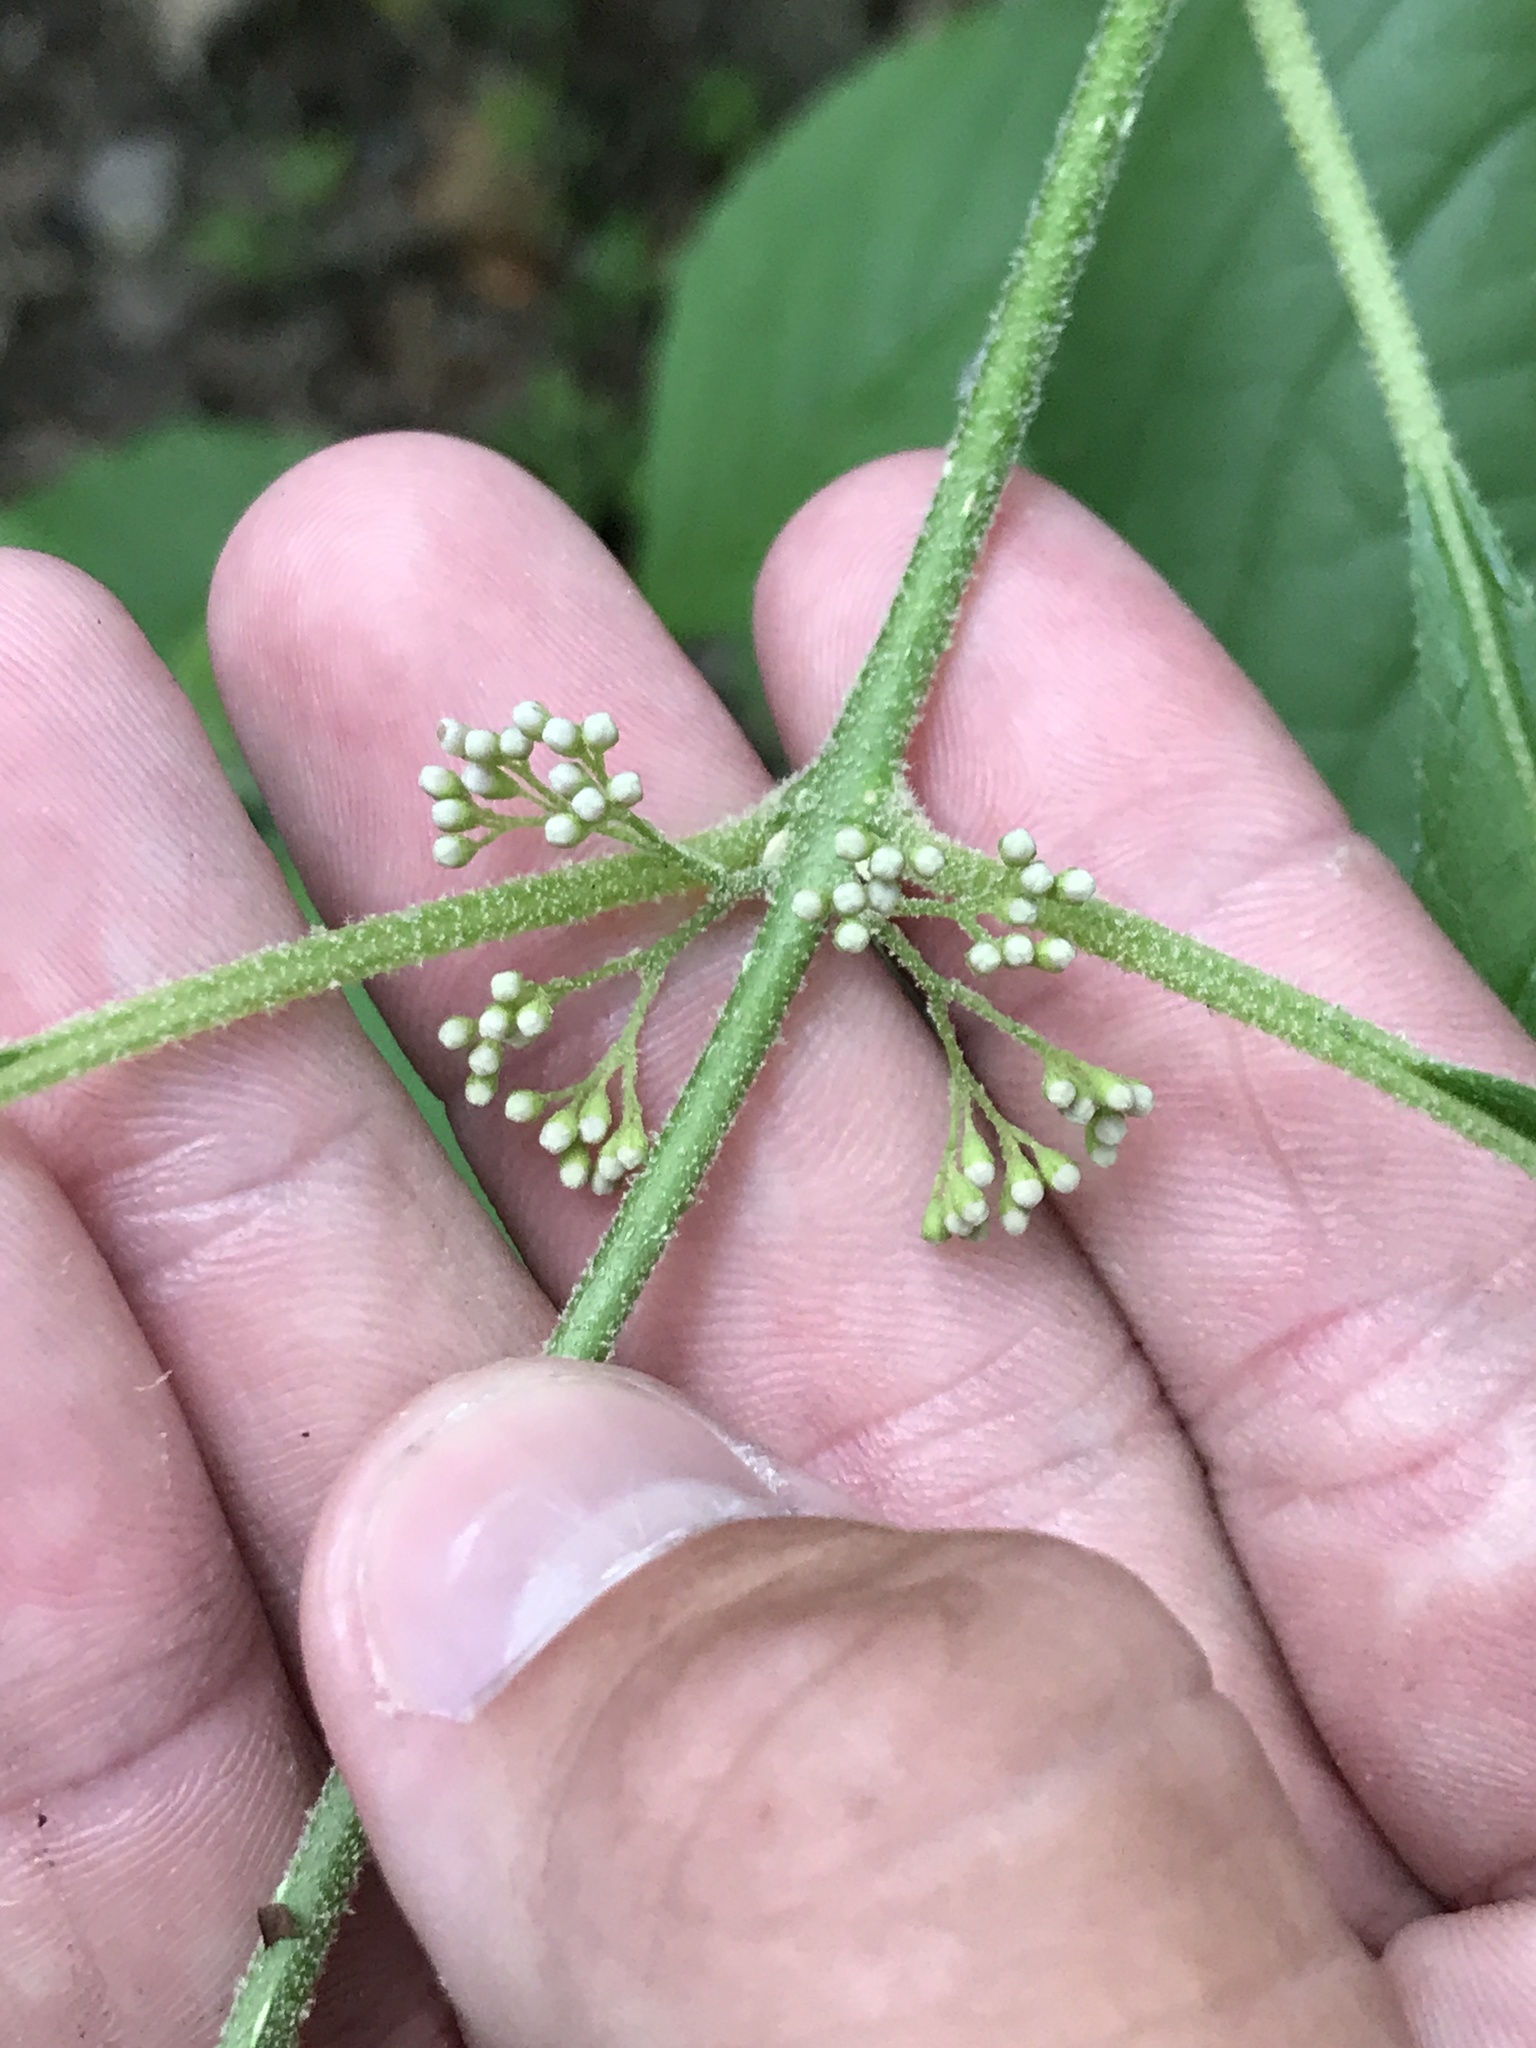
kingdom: Plantae
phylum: Tracheophyta
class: Magnoliopsida
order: Lamiales
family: Lamiaceae
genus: Callicarpa
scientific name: Callicarpa americana
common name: American beautyberry
